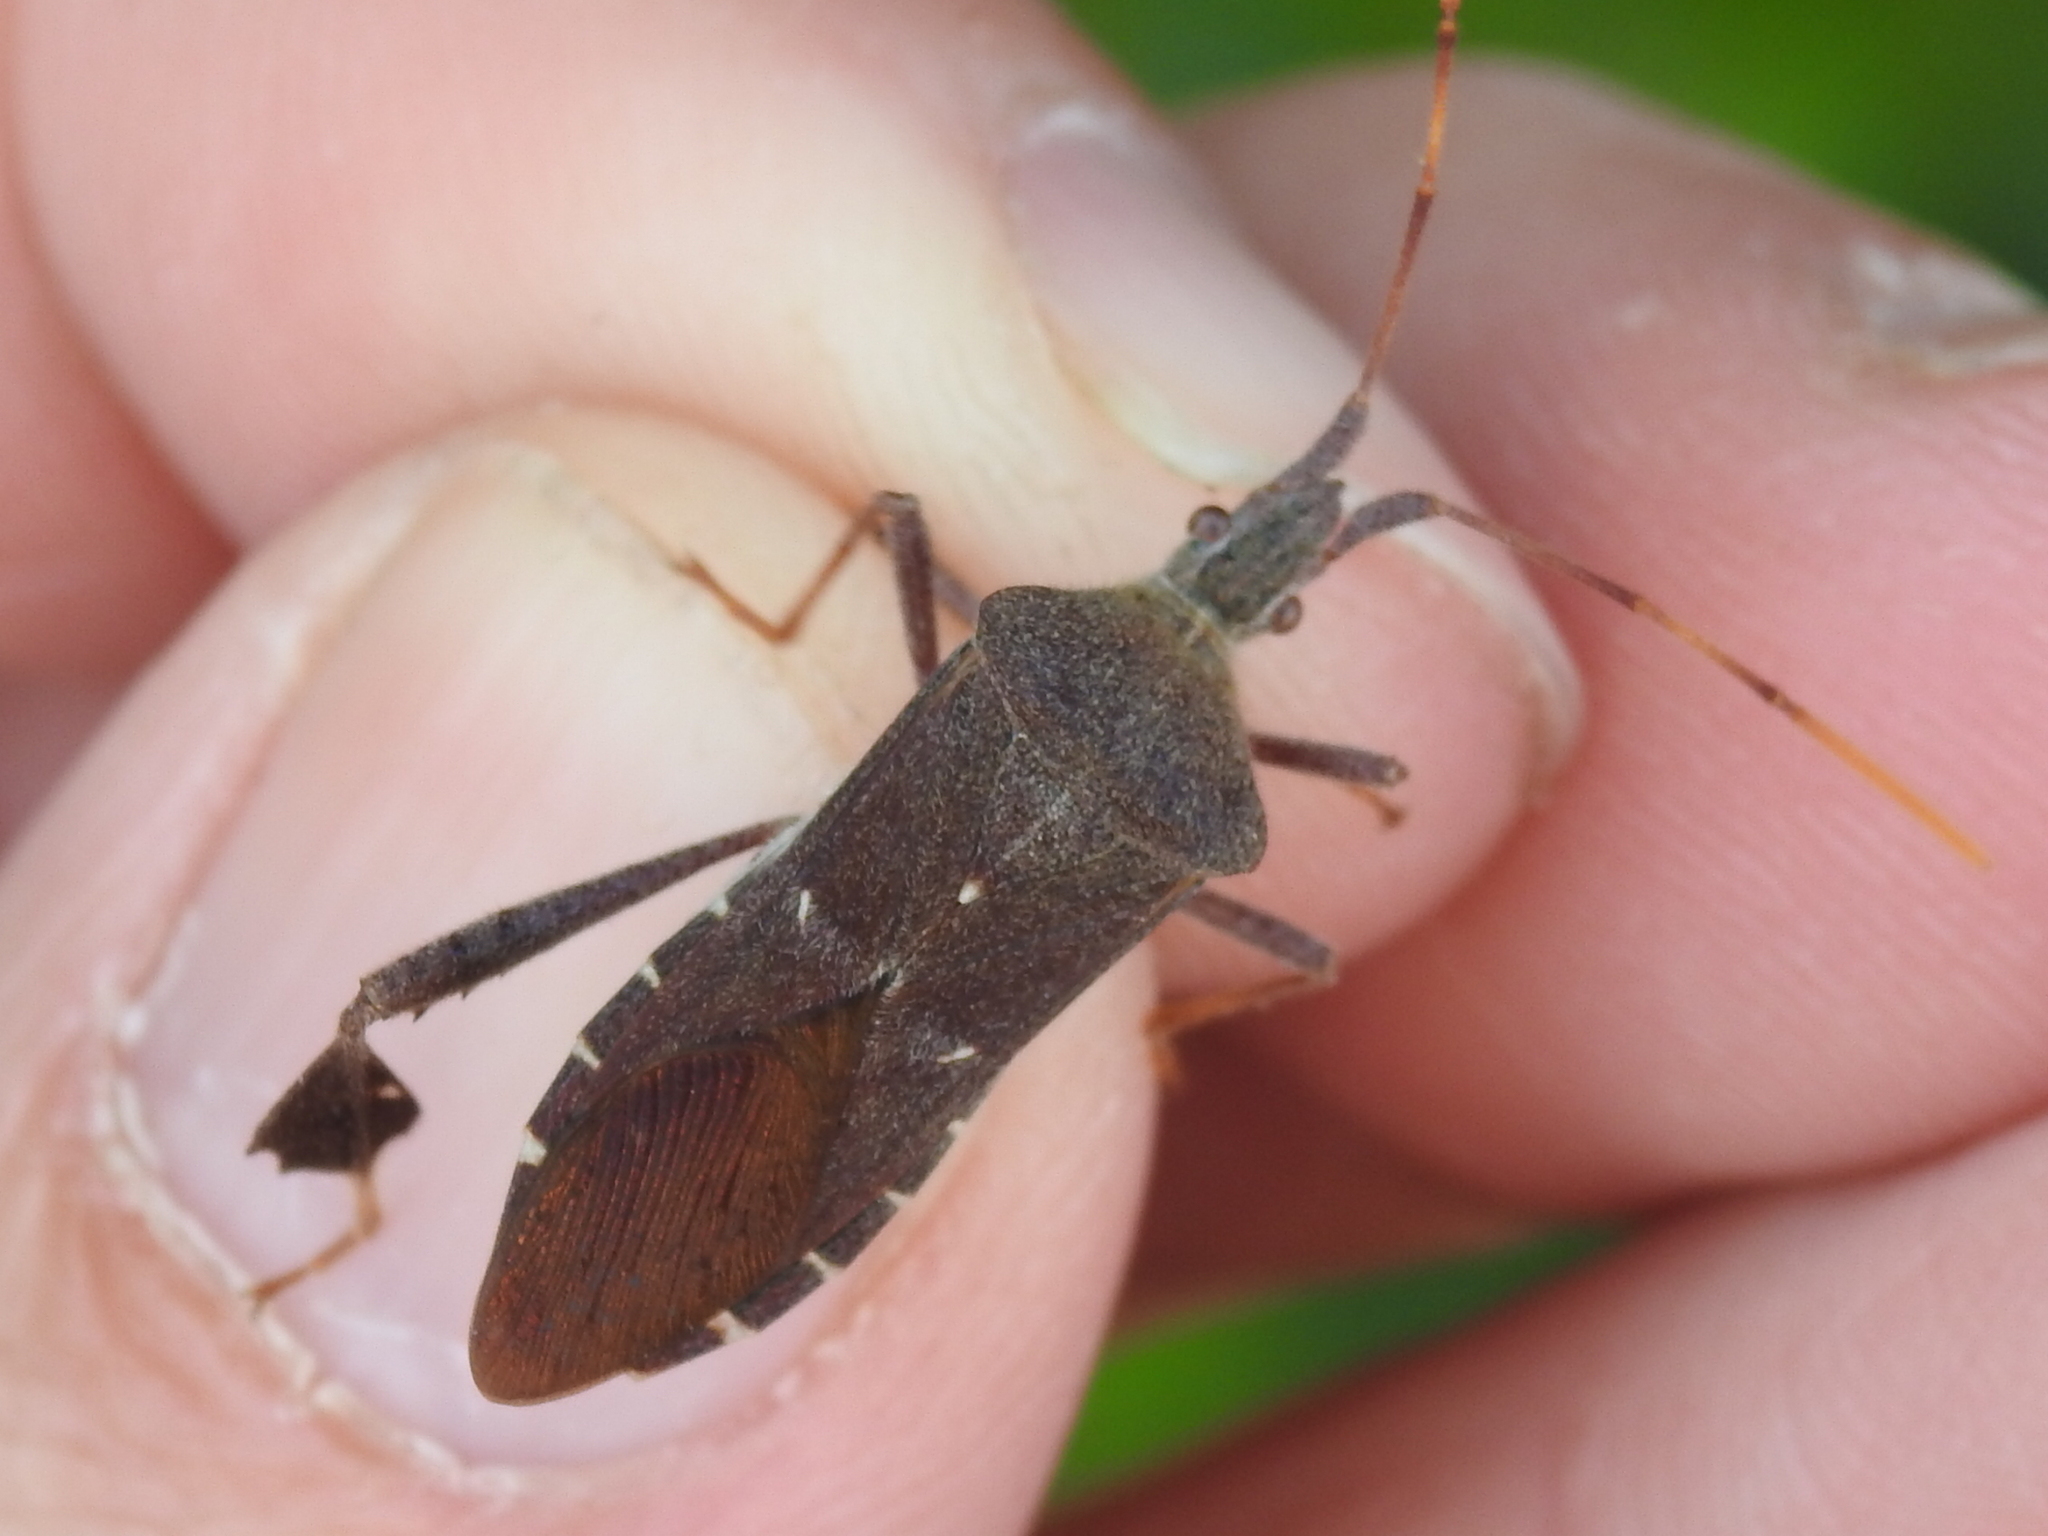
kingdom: Animalia
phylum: Arthropoda
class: Insecta
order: Hemiptera
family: Coreidae
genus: Leptoglossus
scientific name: Leptoglossus oppositus
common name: Northern leaf-footed bug
